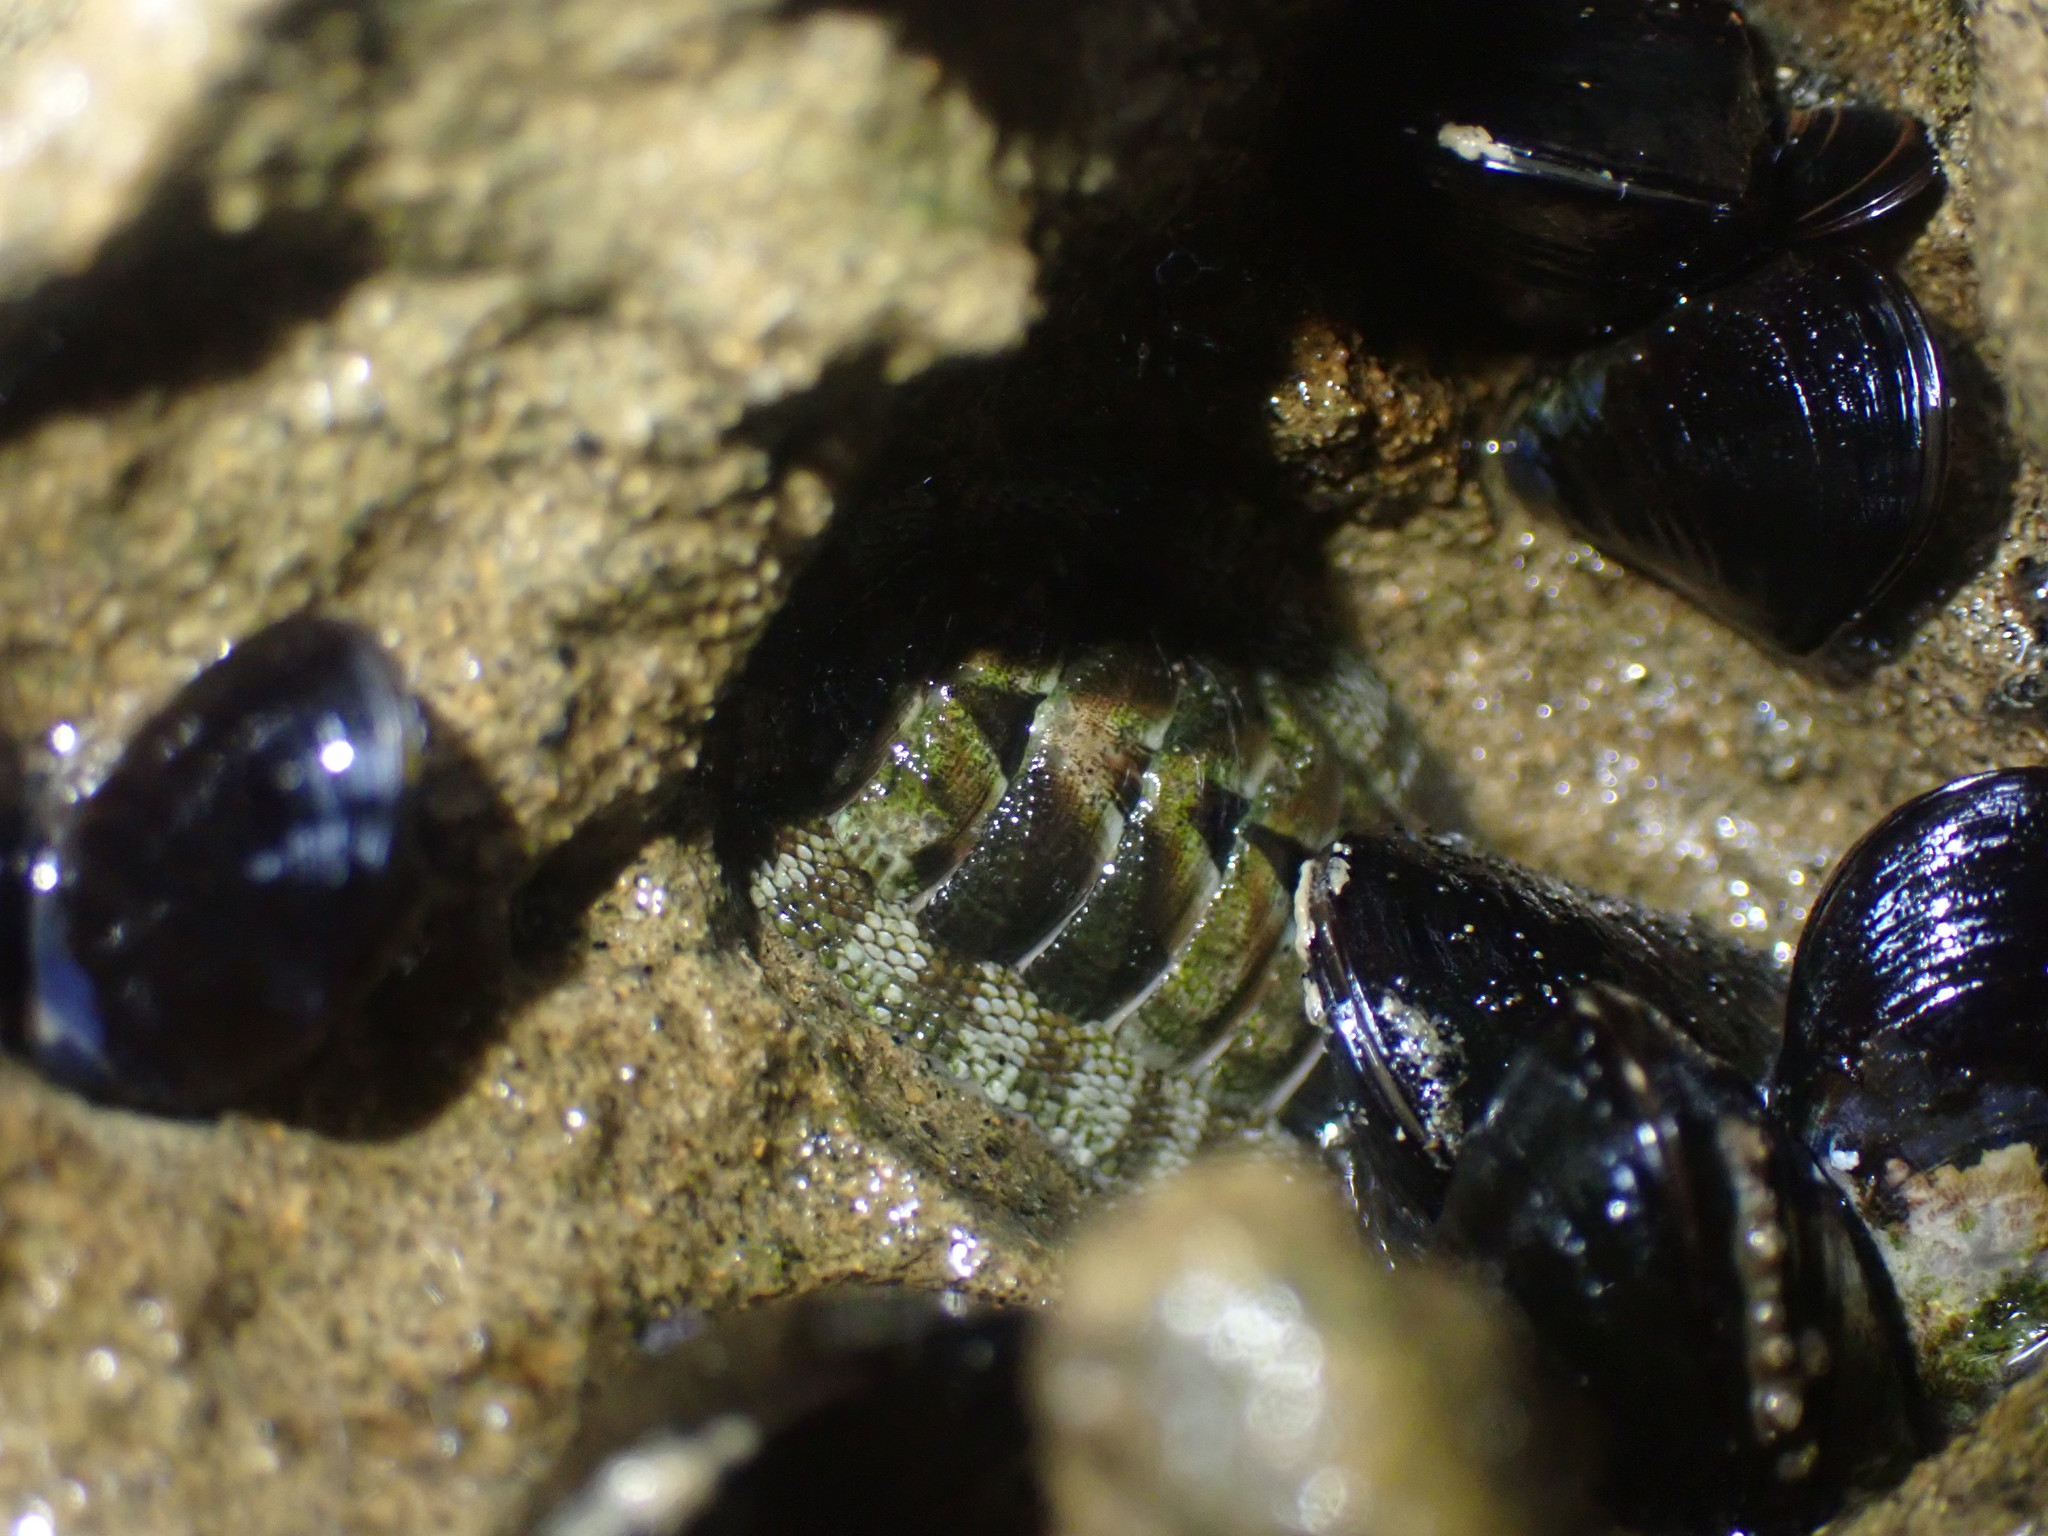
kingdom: Animalia
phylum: Mollusca
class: Polyplacophora
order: Chitonida
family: Chitonidae
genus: Sypharochiton
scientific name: Sypharochiton pelliserpentis
